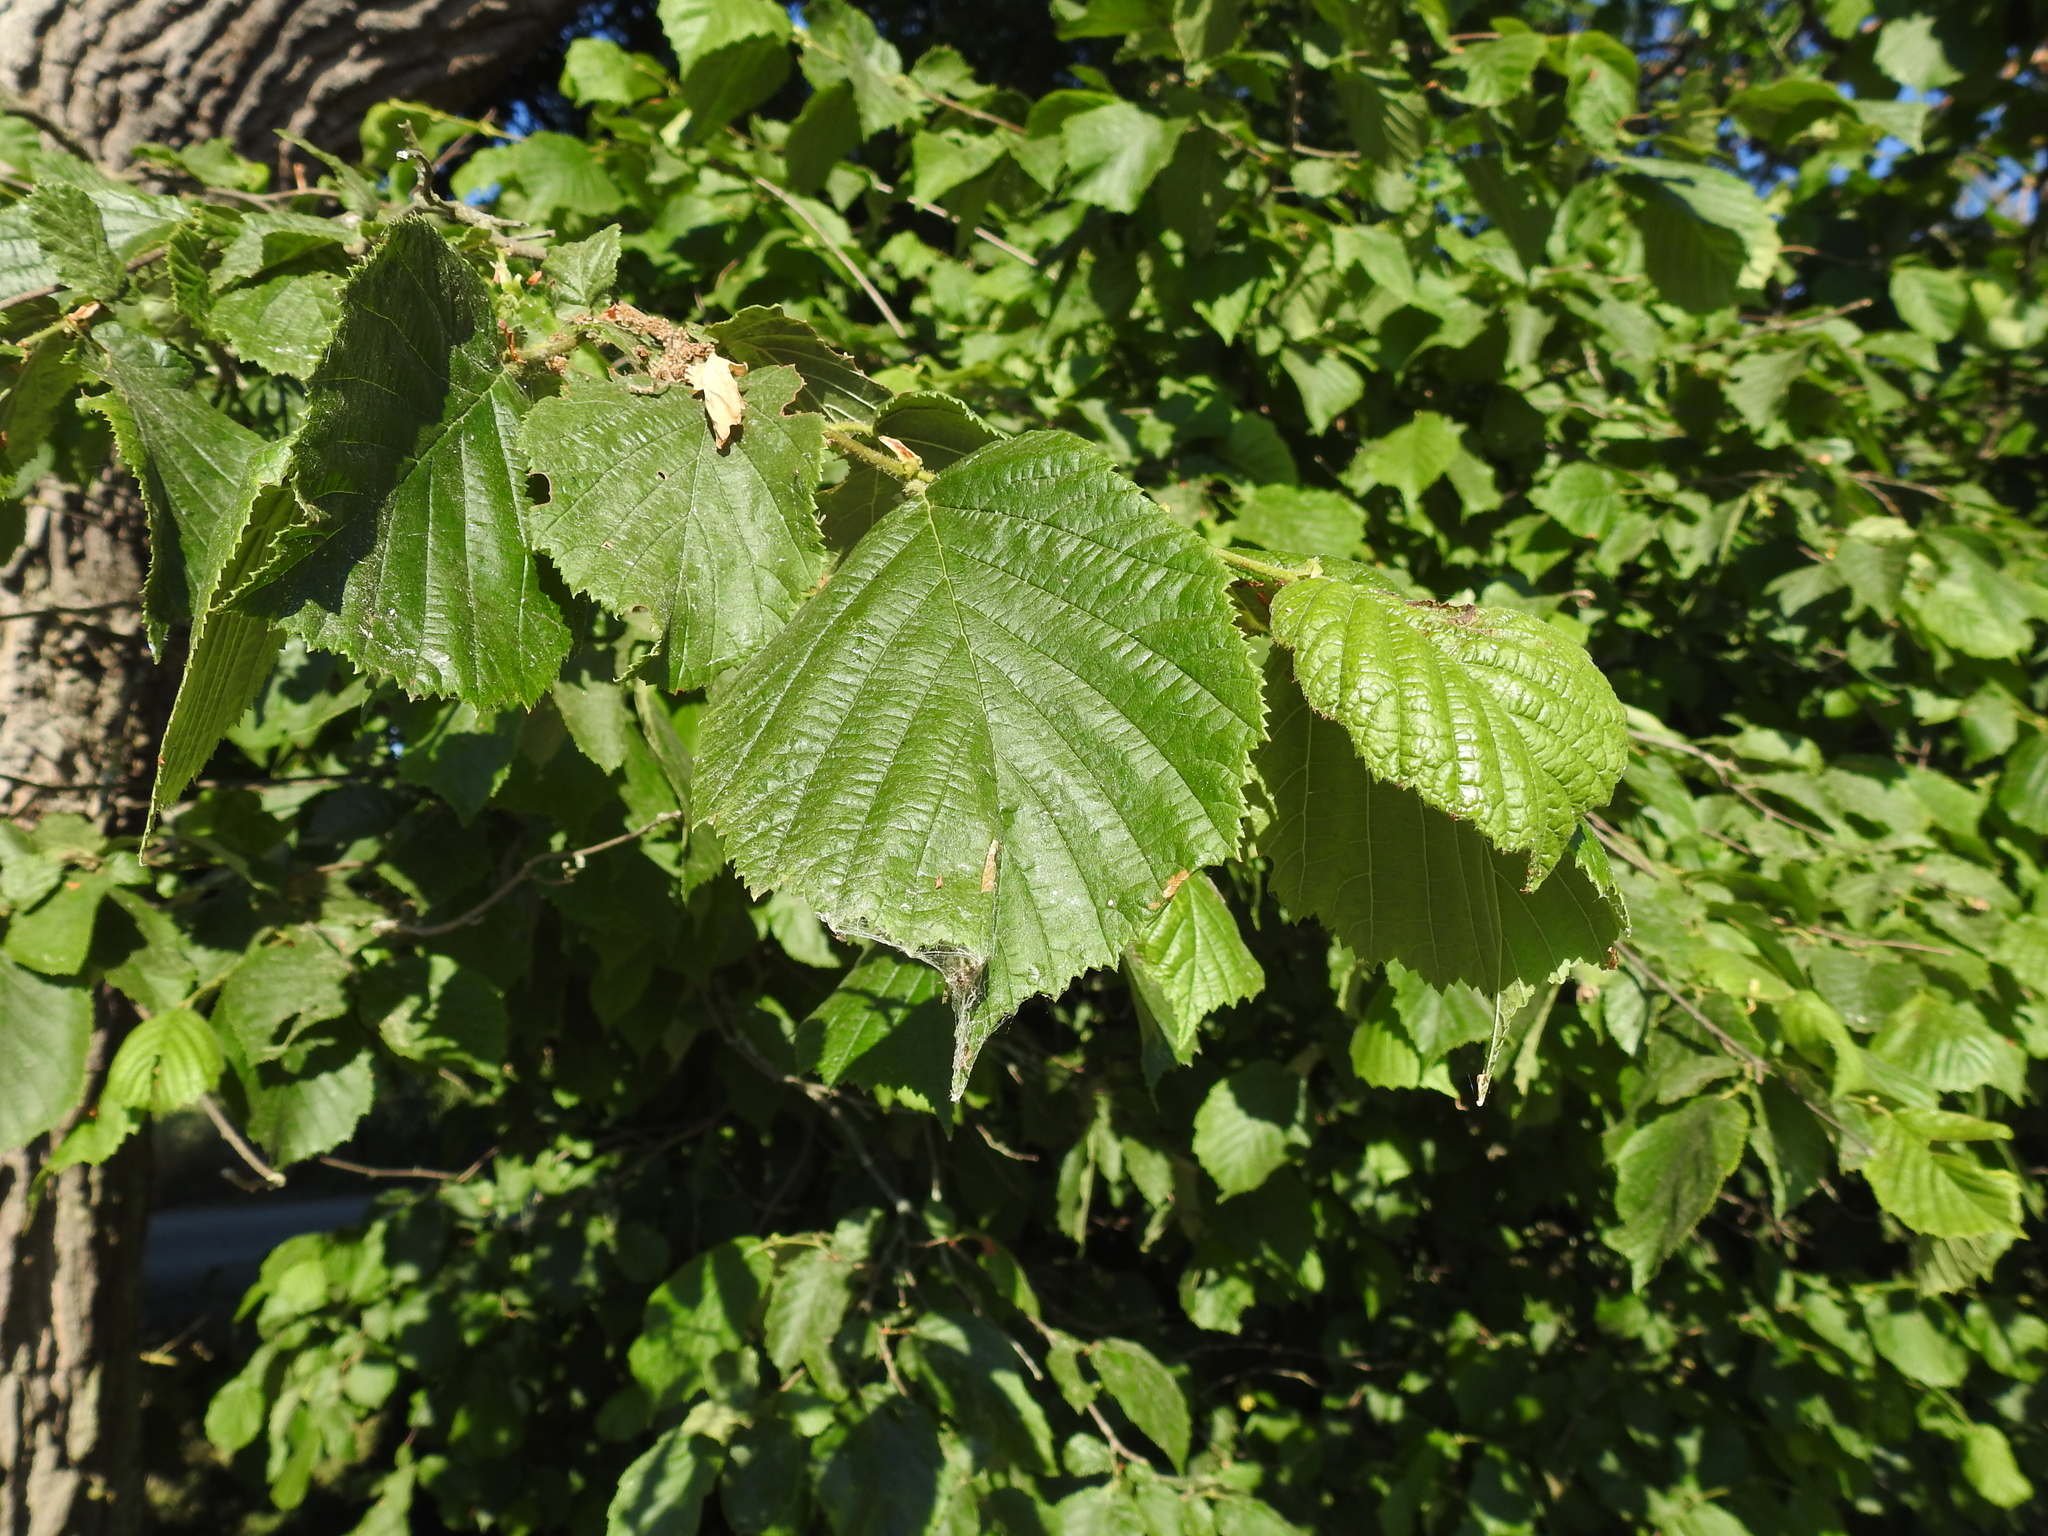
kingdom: Plantae
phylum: Tracheophyta
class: Magnoliopsida
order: Fagales
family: Betulaceae
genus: Corylus
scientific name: Corylus avellana
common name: European hazel
